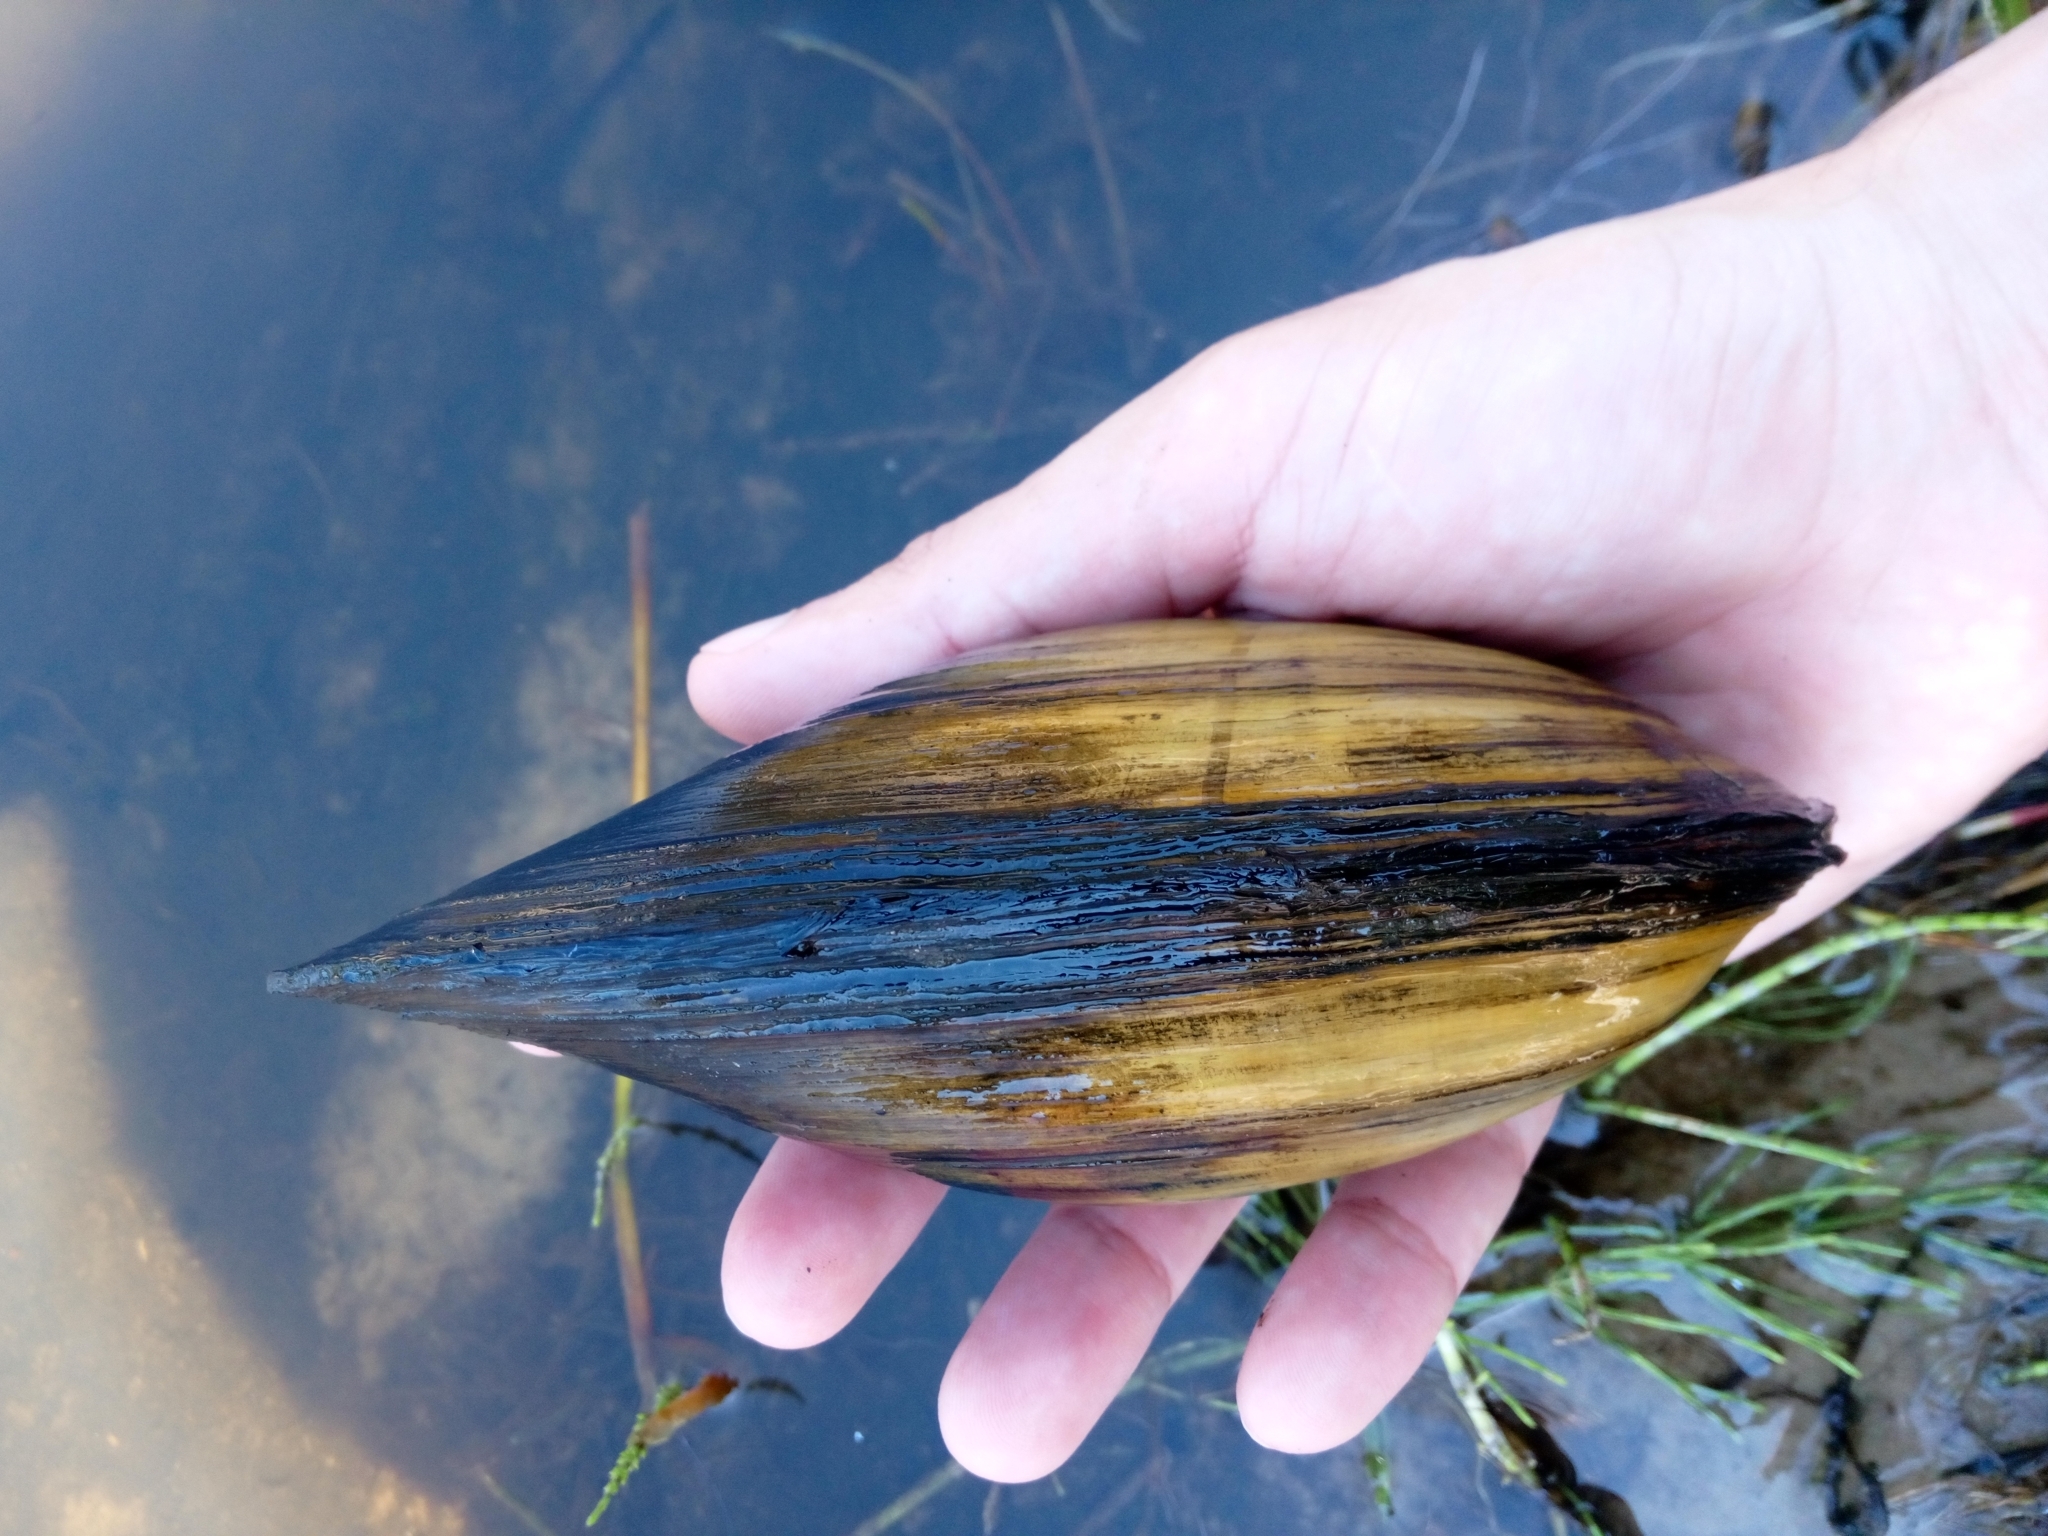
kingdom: Animalia
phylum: Mollusca
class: Bivalvia
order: Unionida
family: Unionidae
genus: Anodonta
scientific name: Anodonta cygnea
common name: Swan mussel
